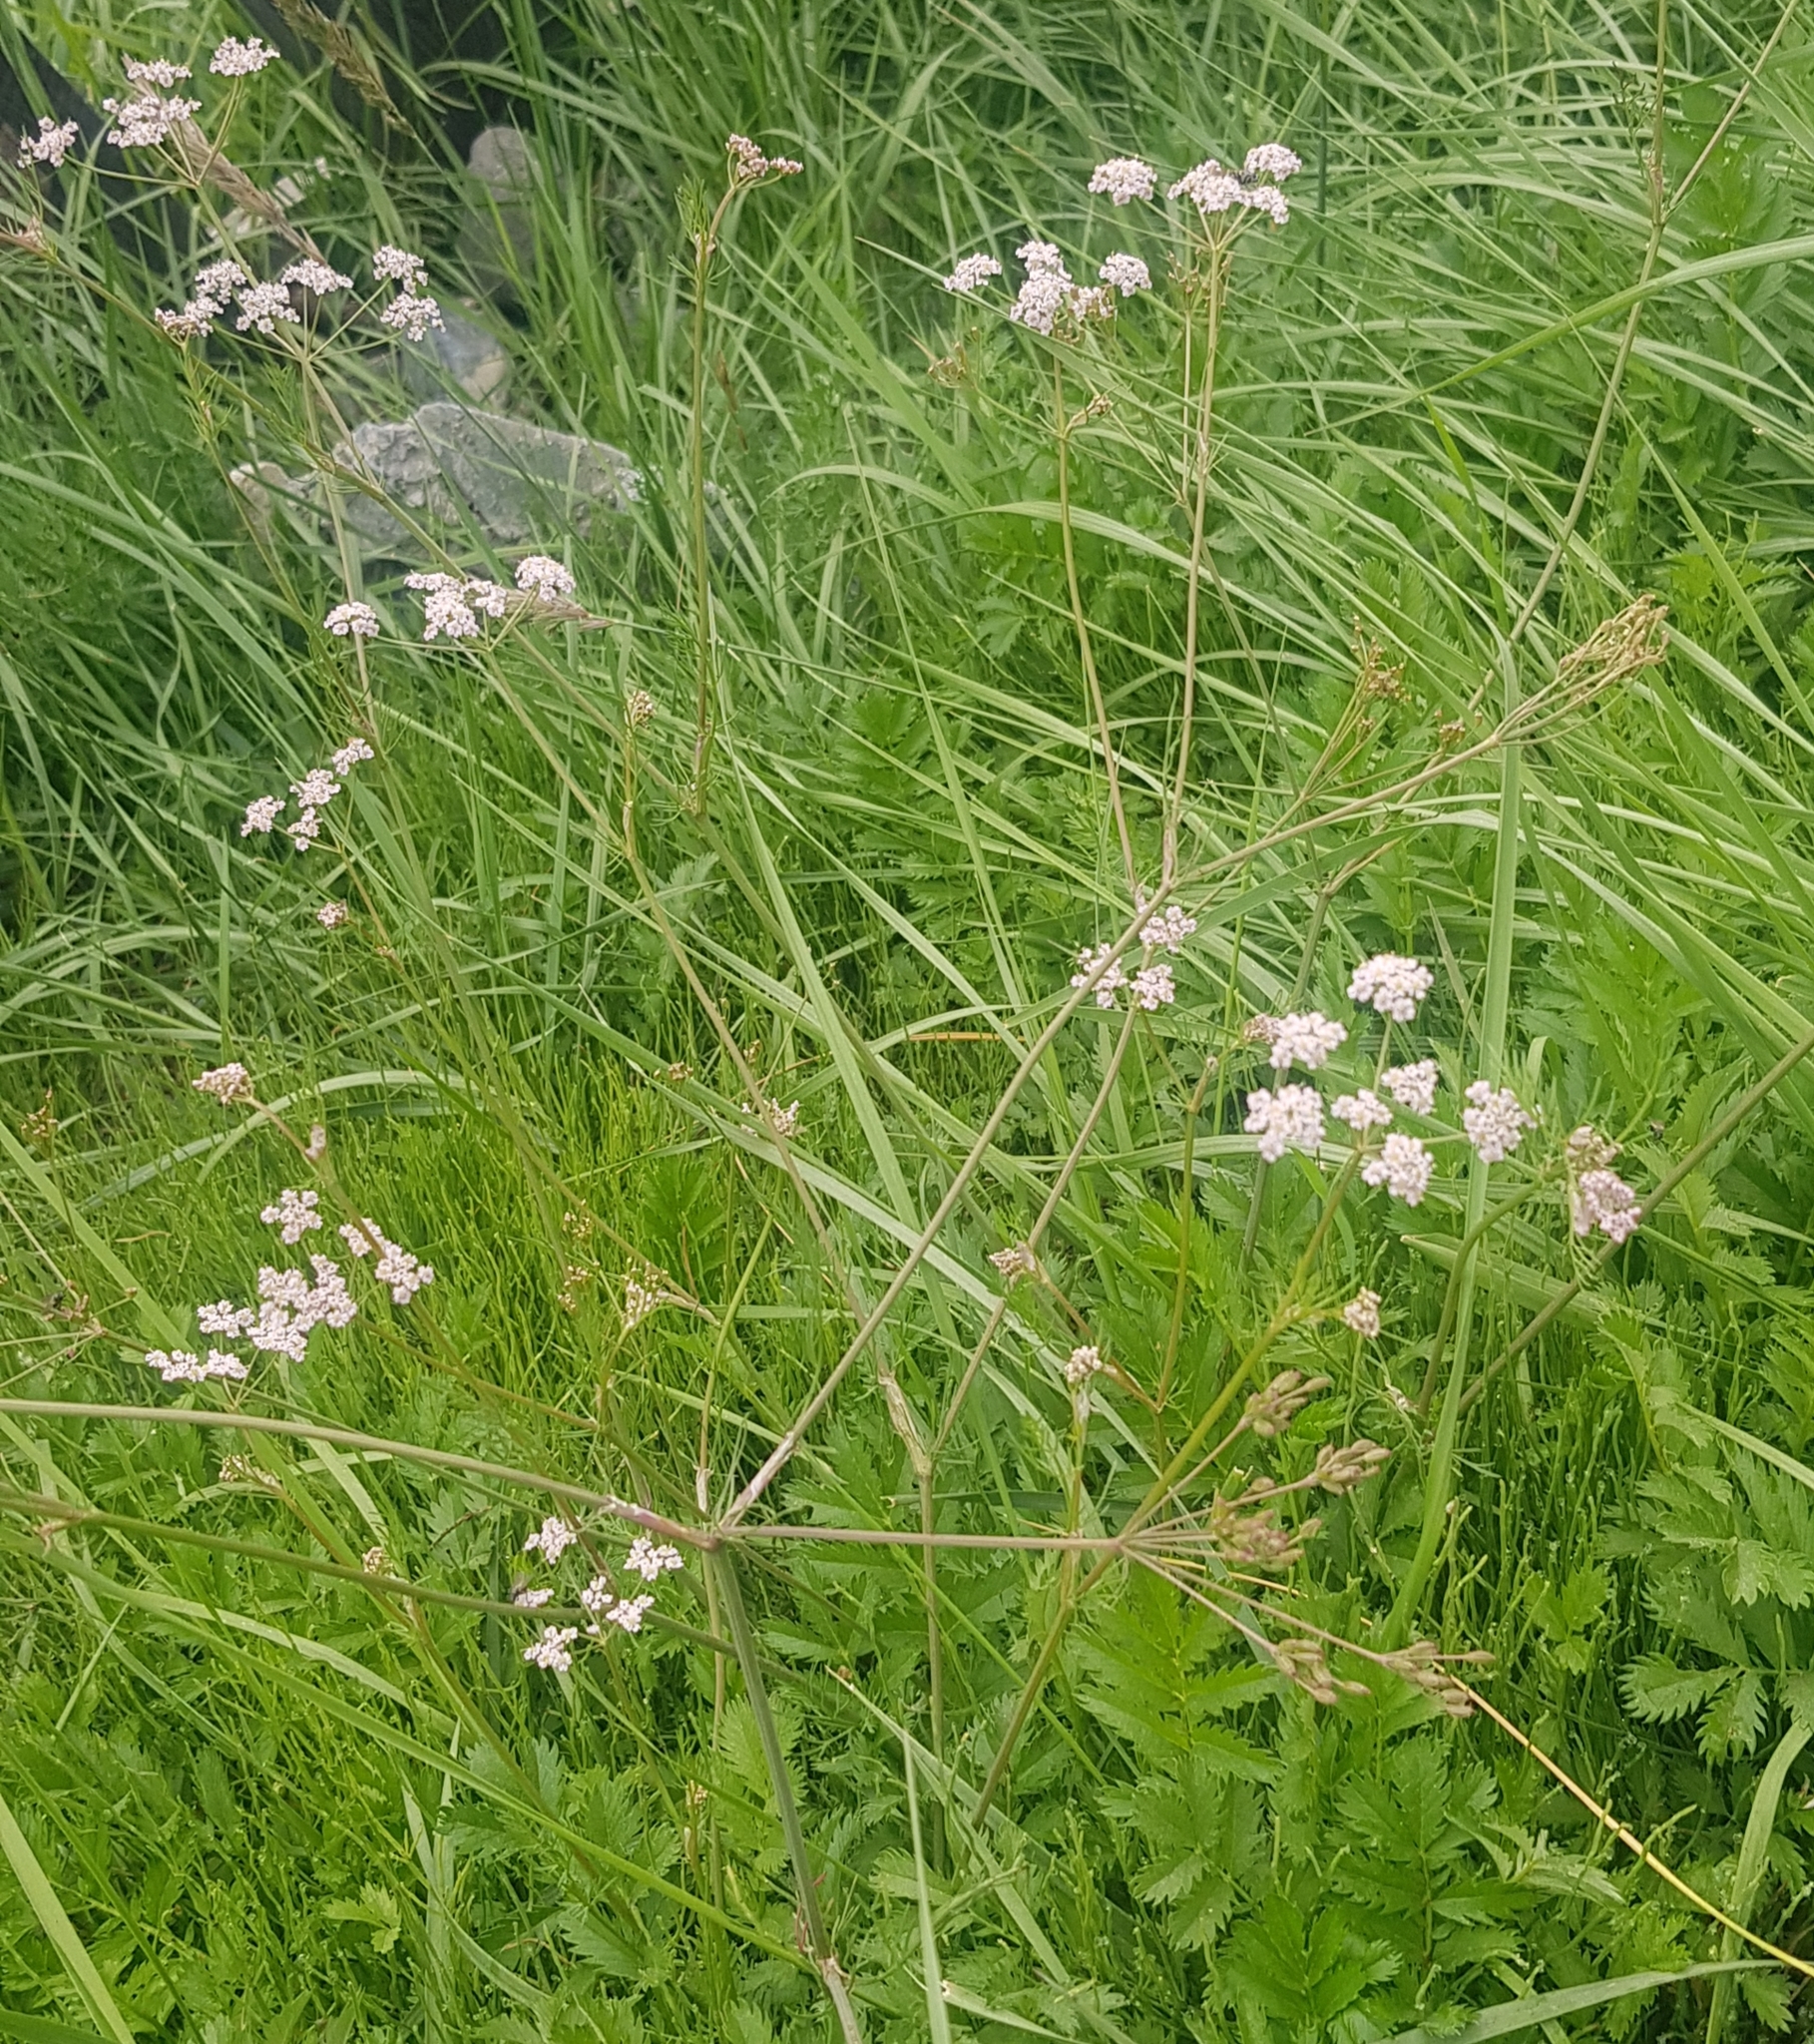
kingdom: Plantae
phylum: Tracheophyta
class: Magnoliopsida
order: Asterales
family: Asteraceae
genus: Achillea
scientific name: Achillea asiatica
